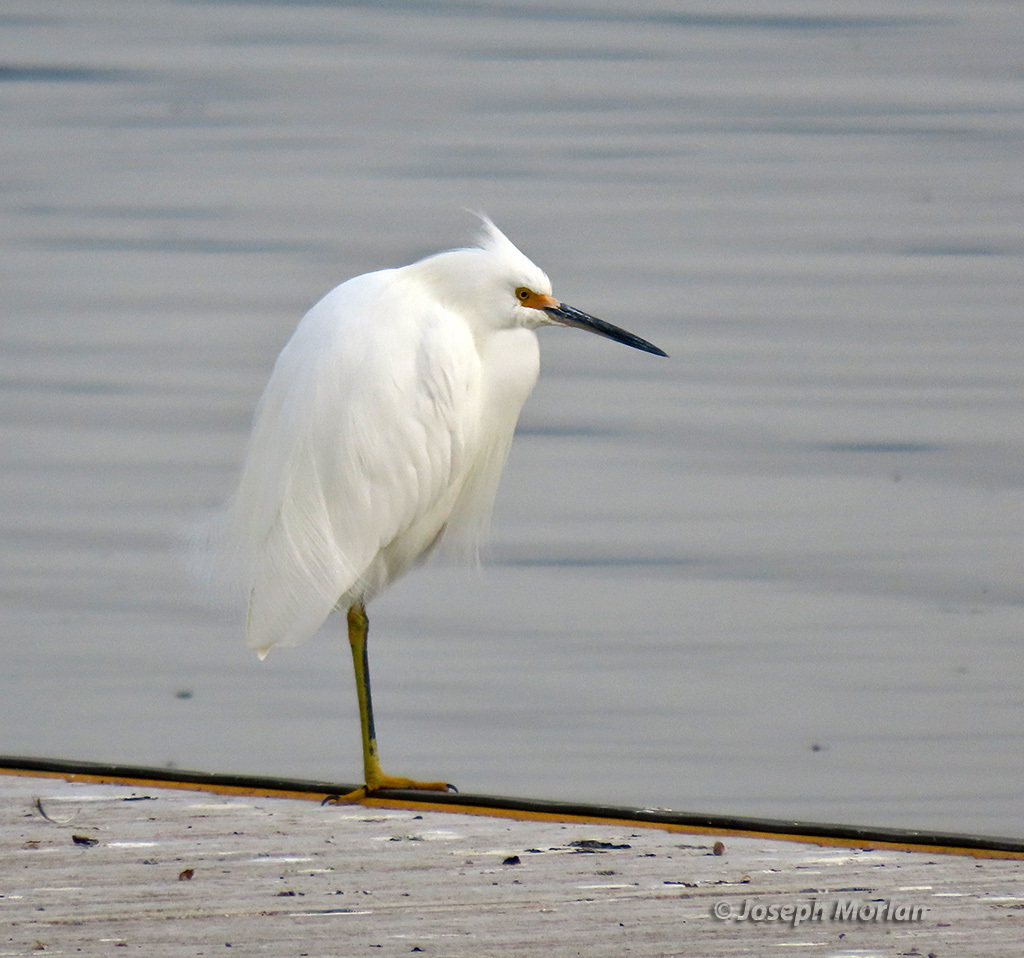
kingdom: Animalia
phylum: Chordata
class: Aves
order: Pelecaniformes
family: Ardeidae
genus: Egretta
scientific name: Egretta thula
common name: Snowy egret
